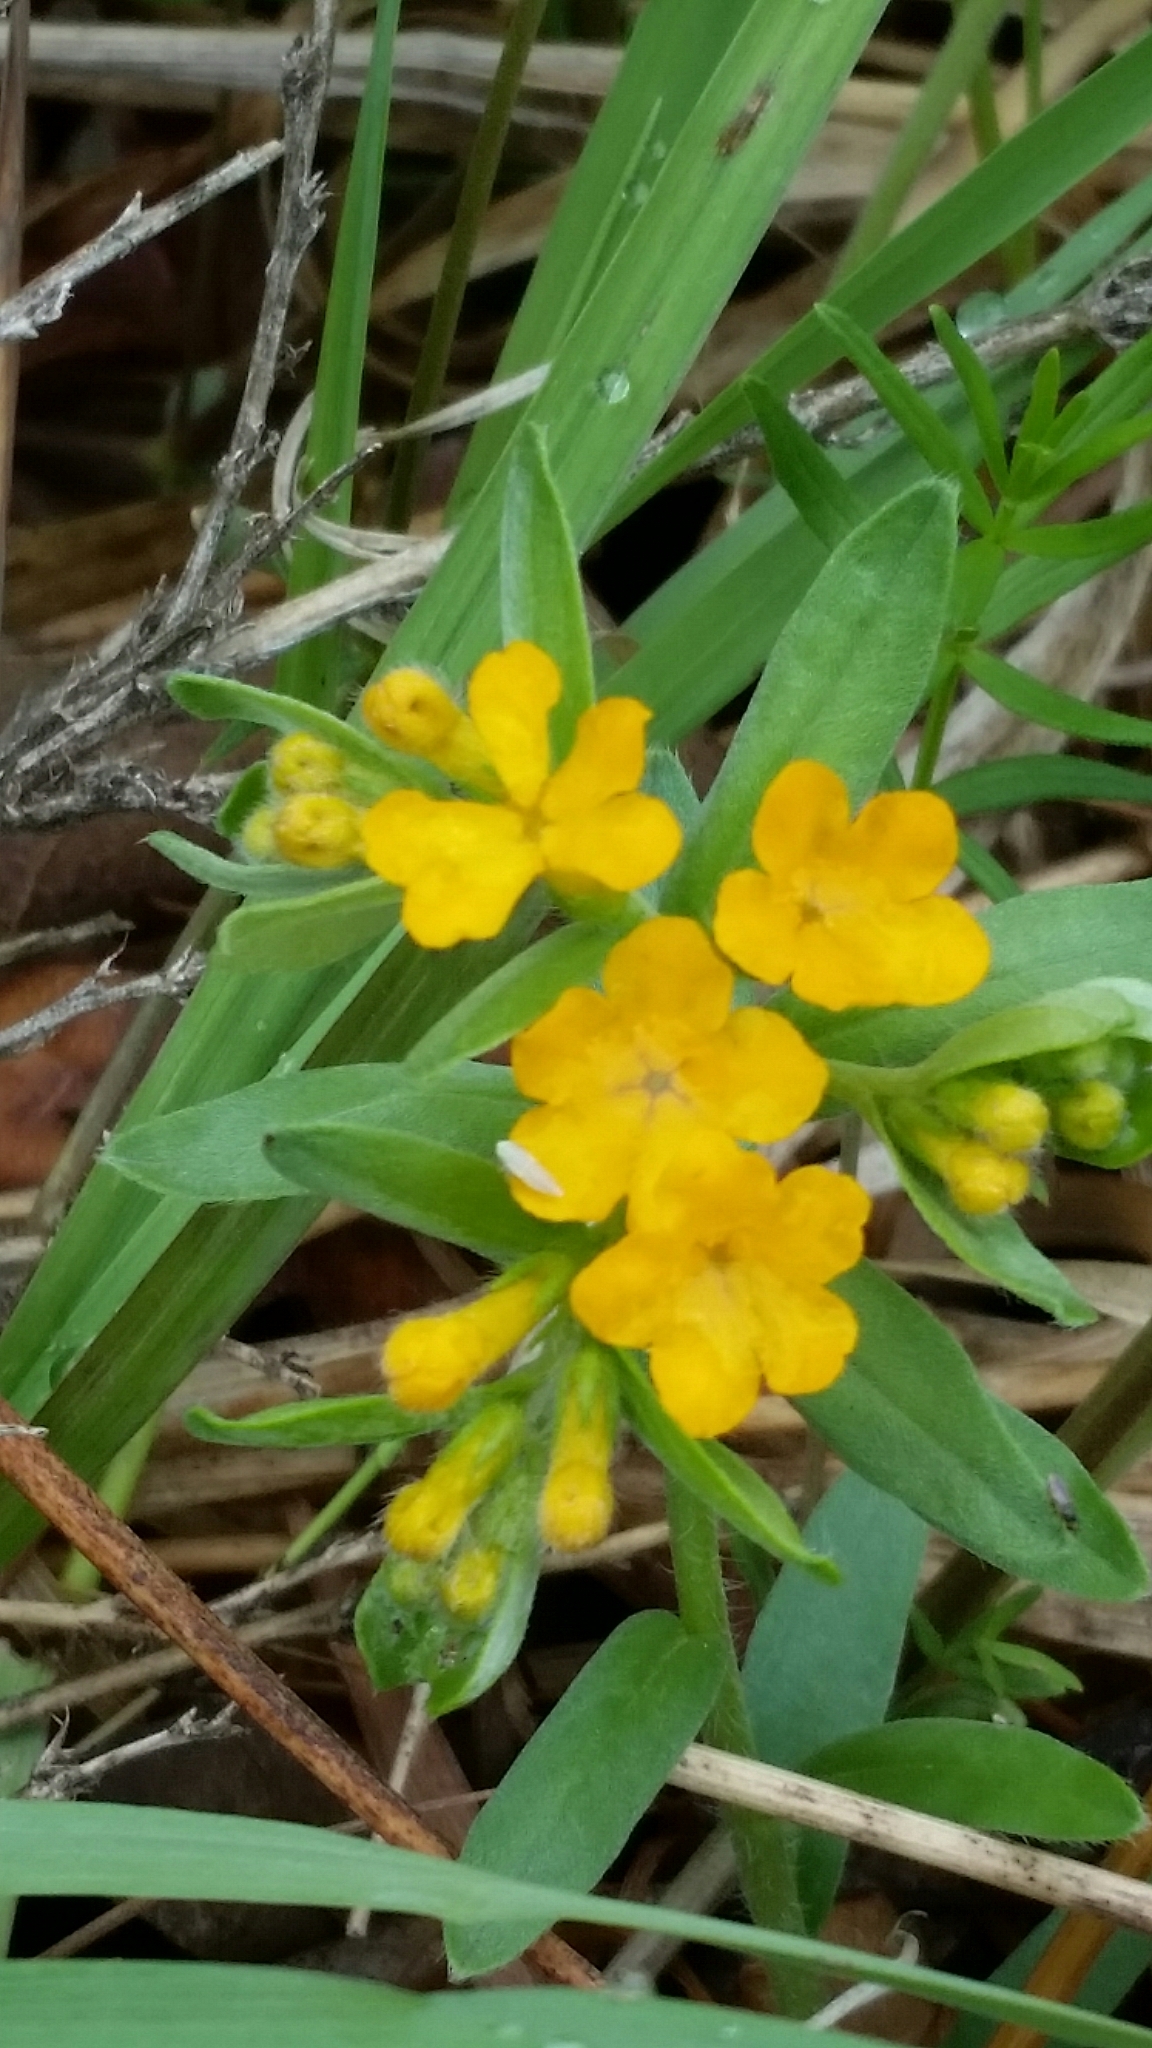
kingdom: Plantae
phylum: Tracheophyta
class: Magnoliopsida
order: Boraginales
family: Boraginaceae
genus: Lithospermum
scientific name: Lithospermum canescens
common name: Hoary puccoon
